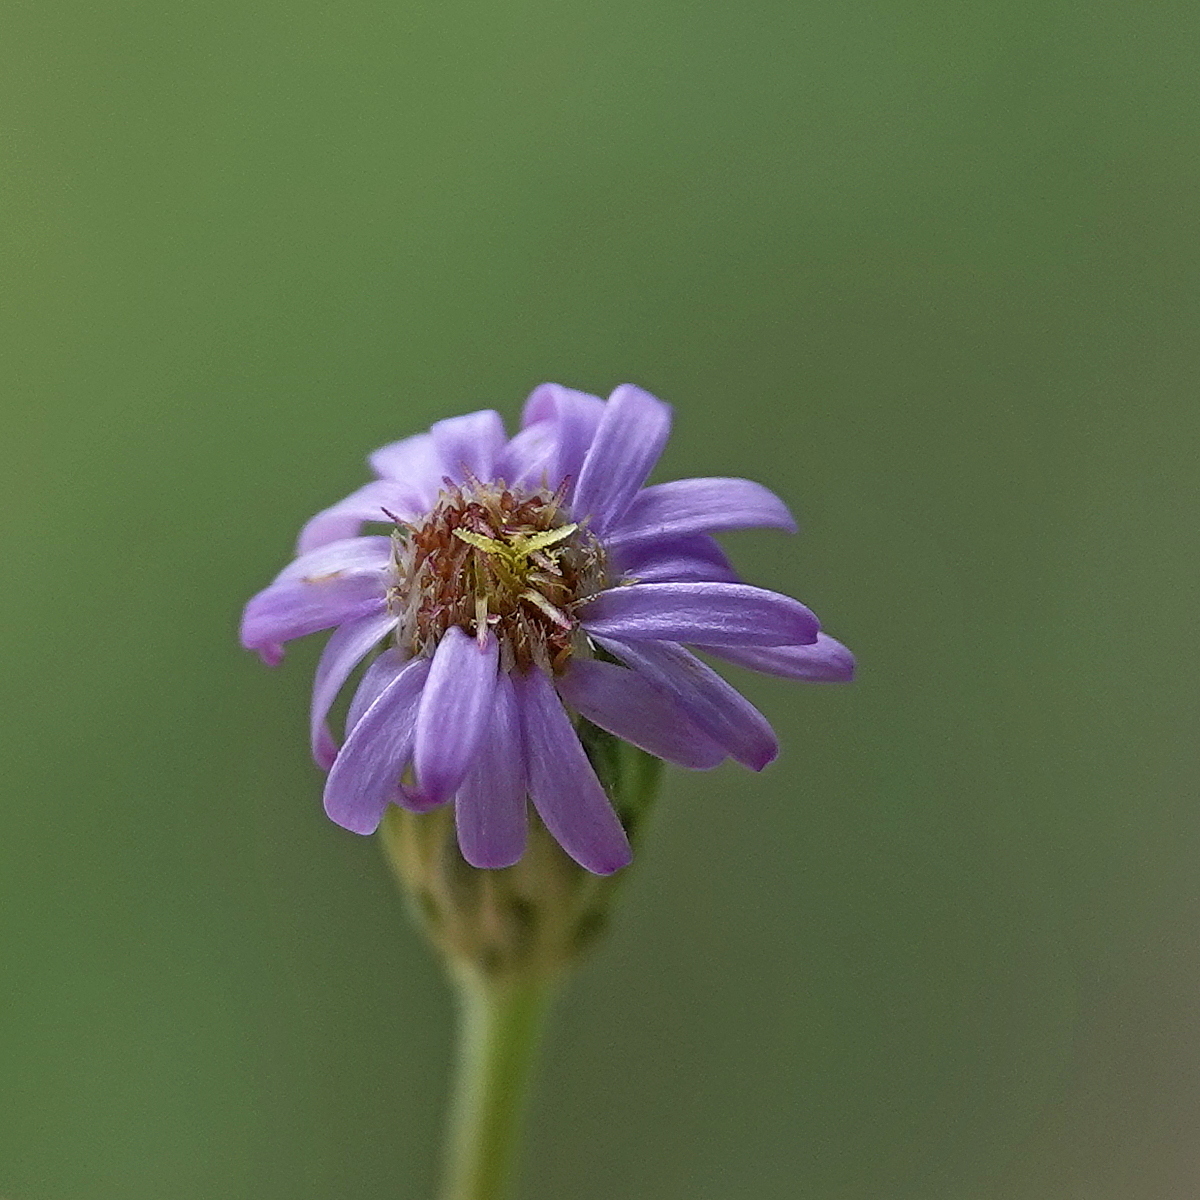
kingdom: Plantae
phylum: Tracheophyta
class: Magnoliopsida
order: Asterales
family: Asteraceae
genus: Vittadinia
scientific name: Vittadinia muelleri
